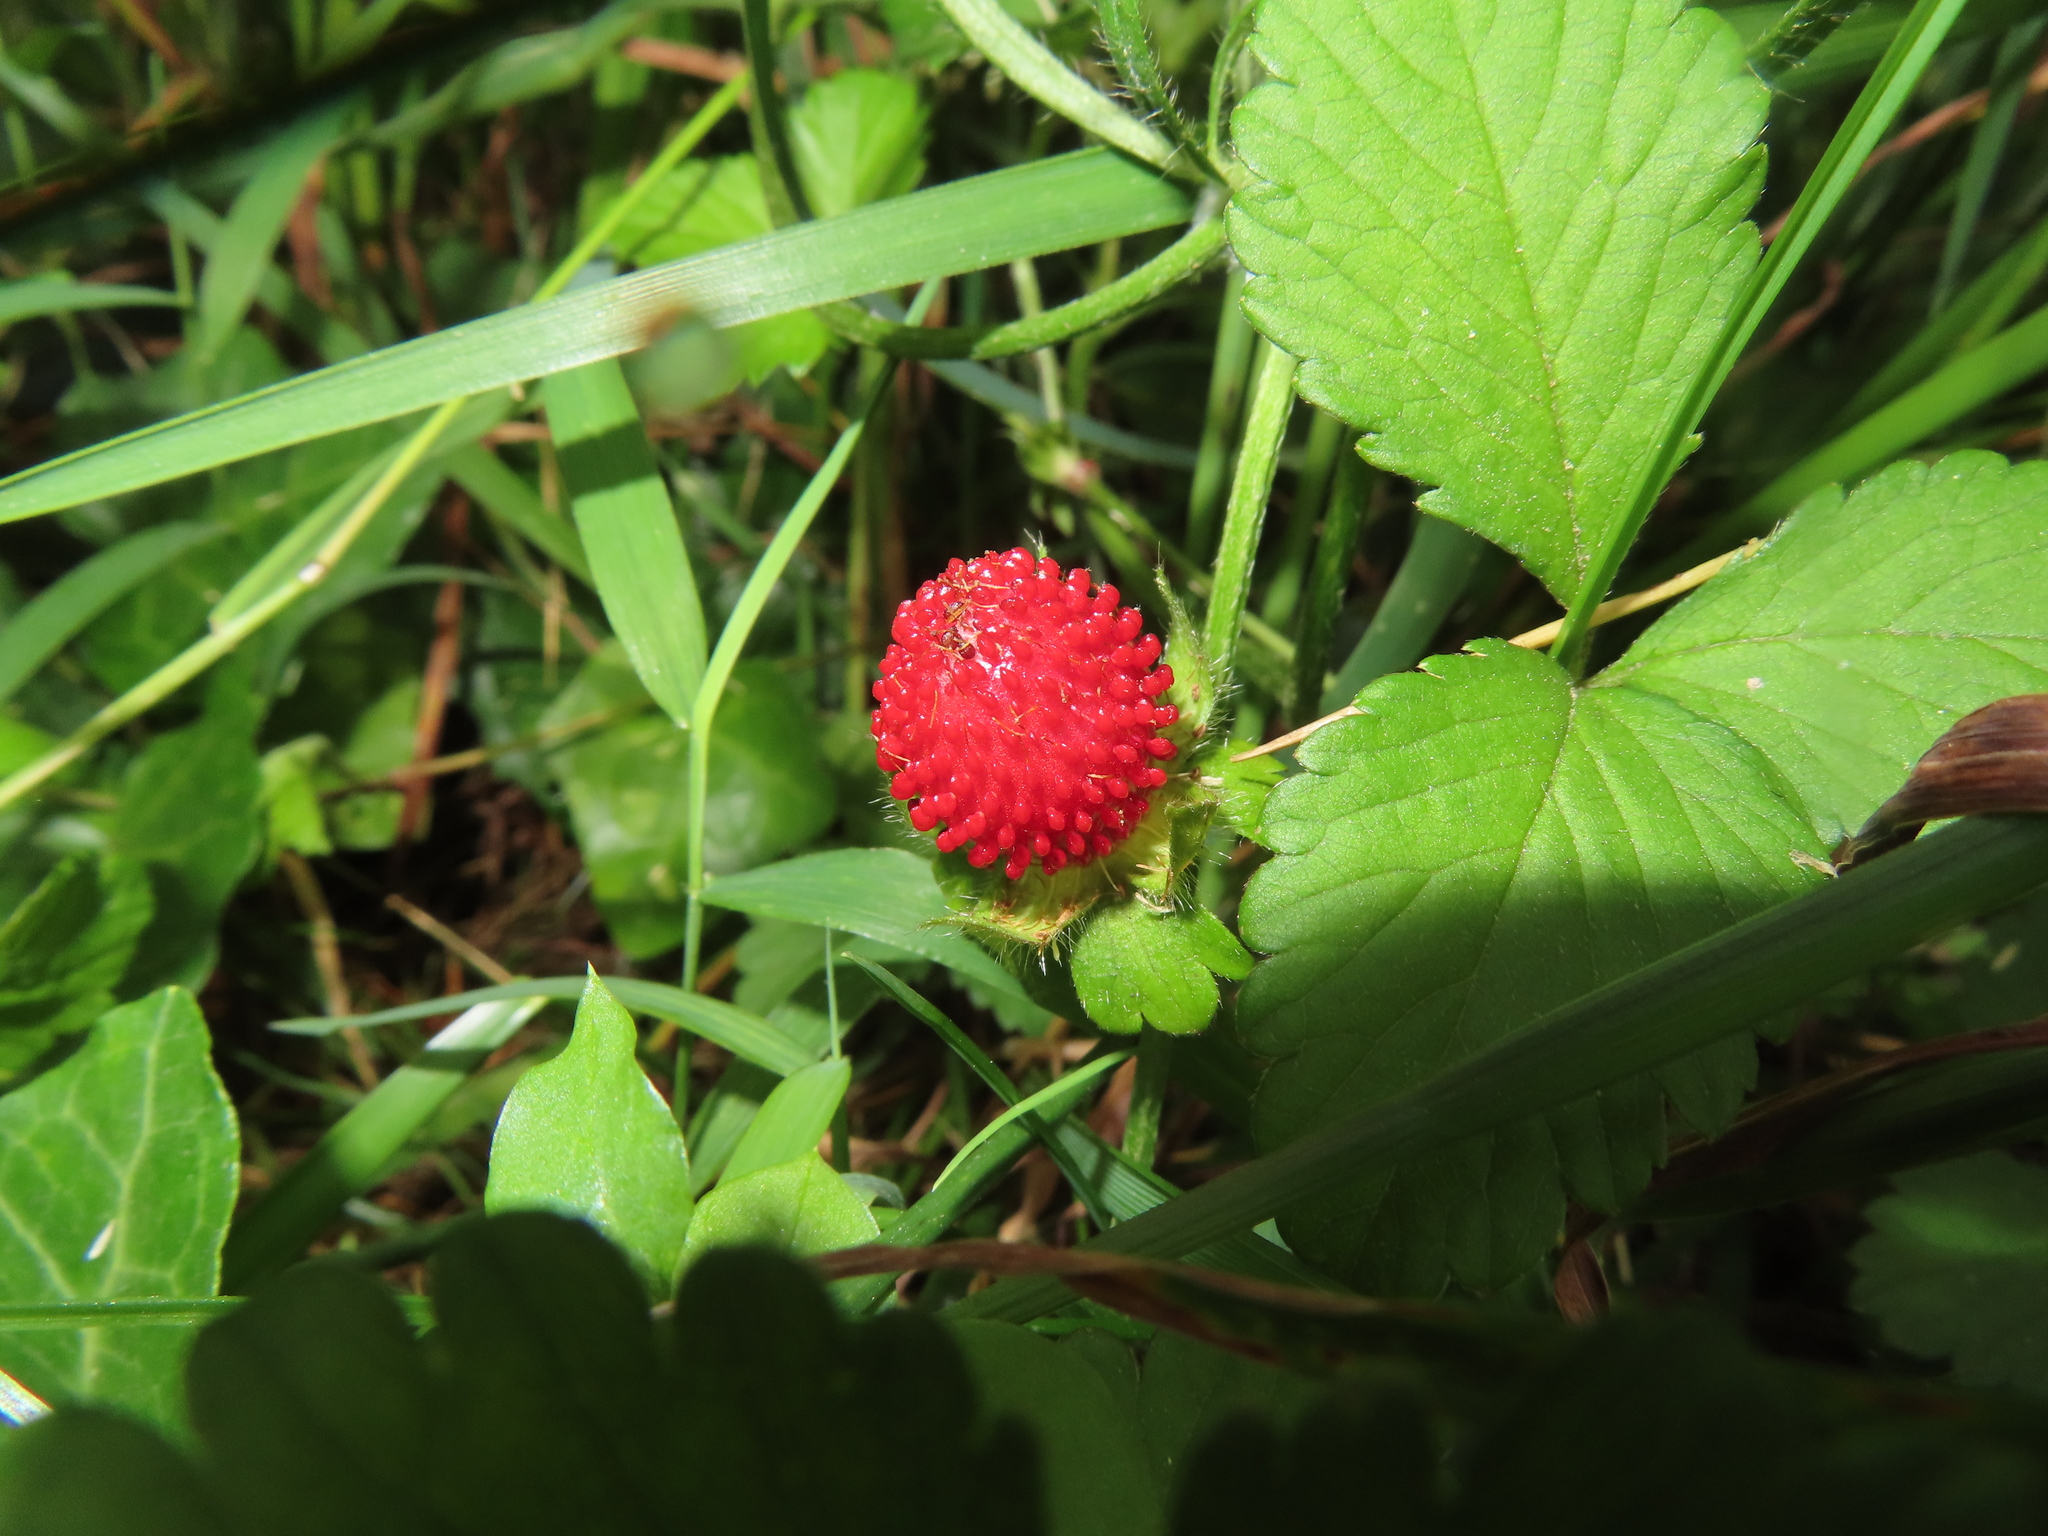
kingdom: Plantae
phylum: Tracheophyta
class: Magnoliopsida
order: Rosales
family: Rosaceae
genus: Potentilla
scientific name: Potentilla indica
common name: Yellow-flowered strawberry
